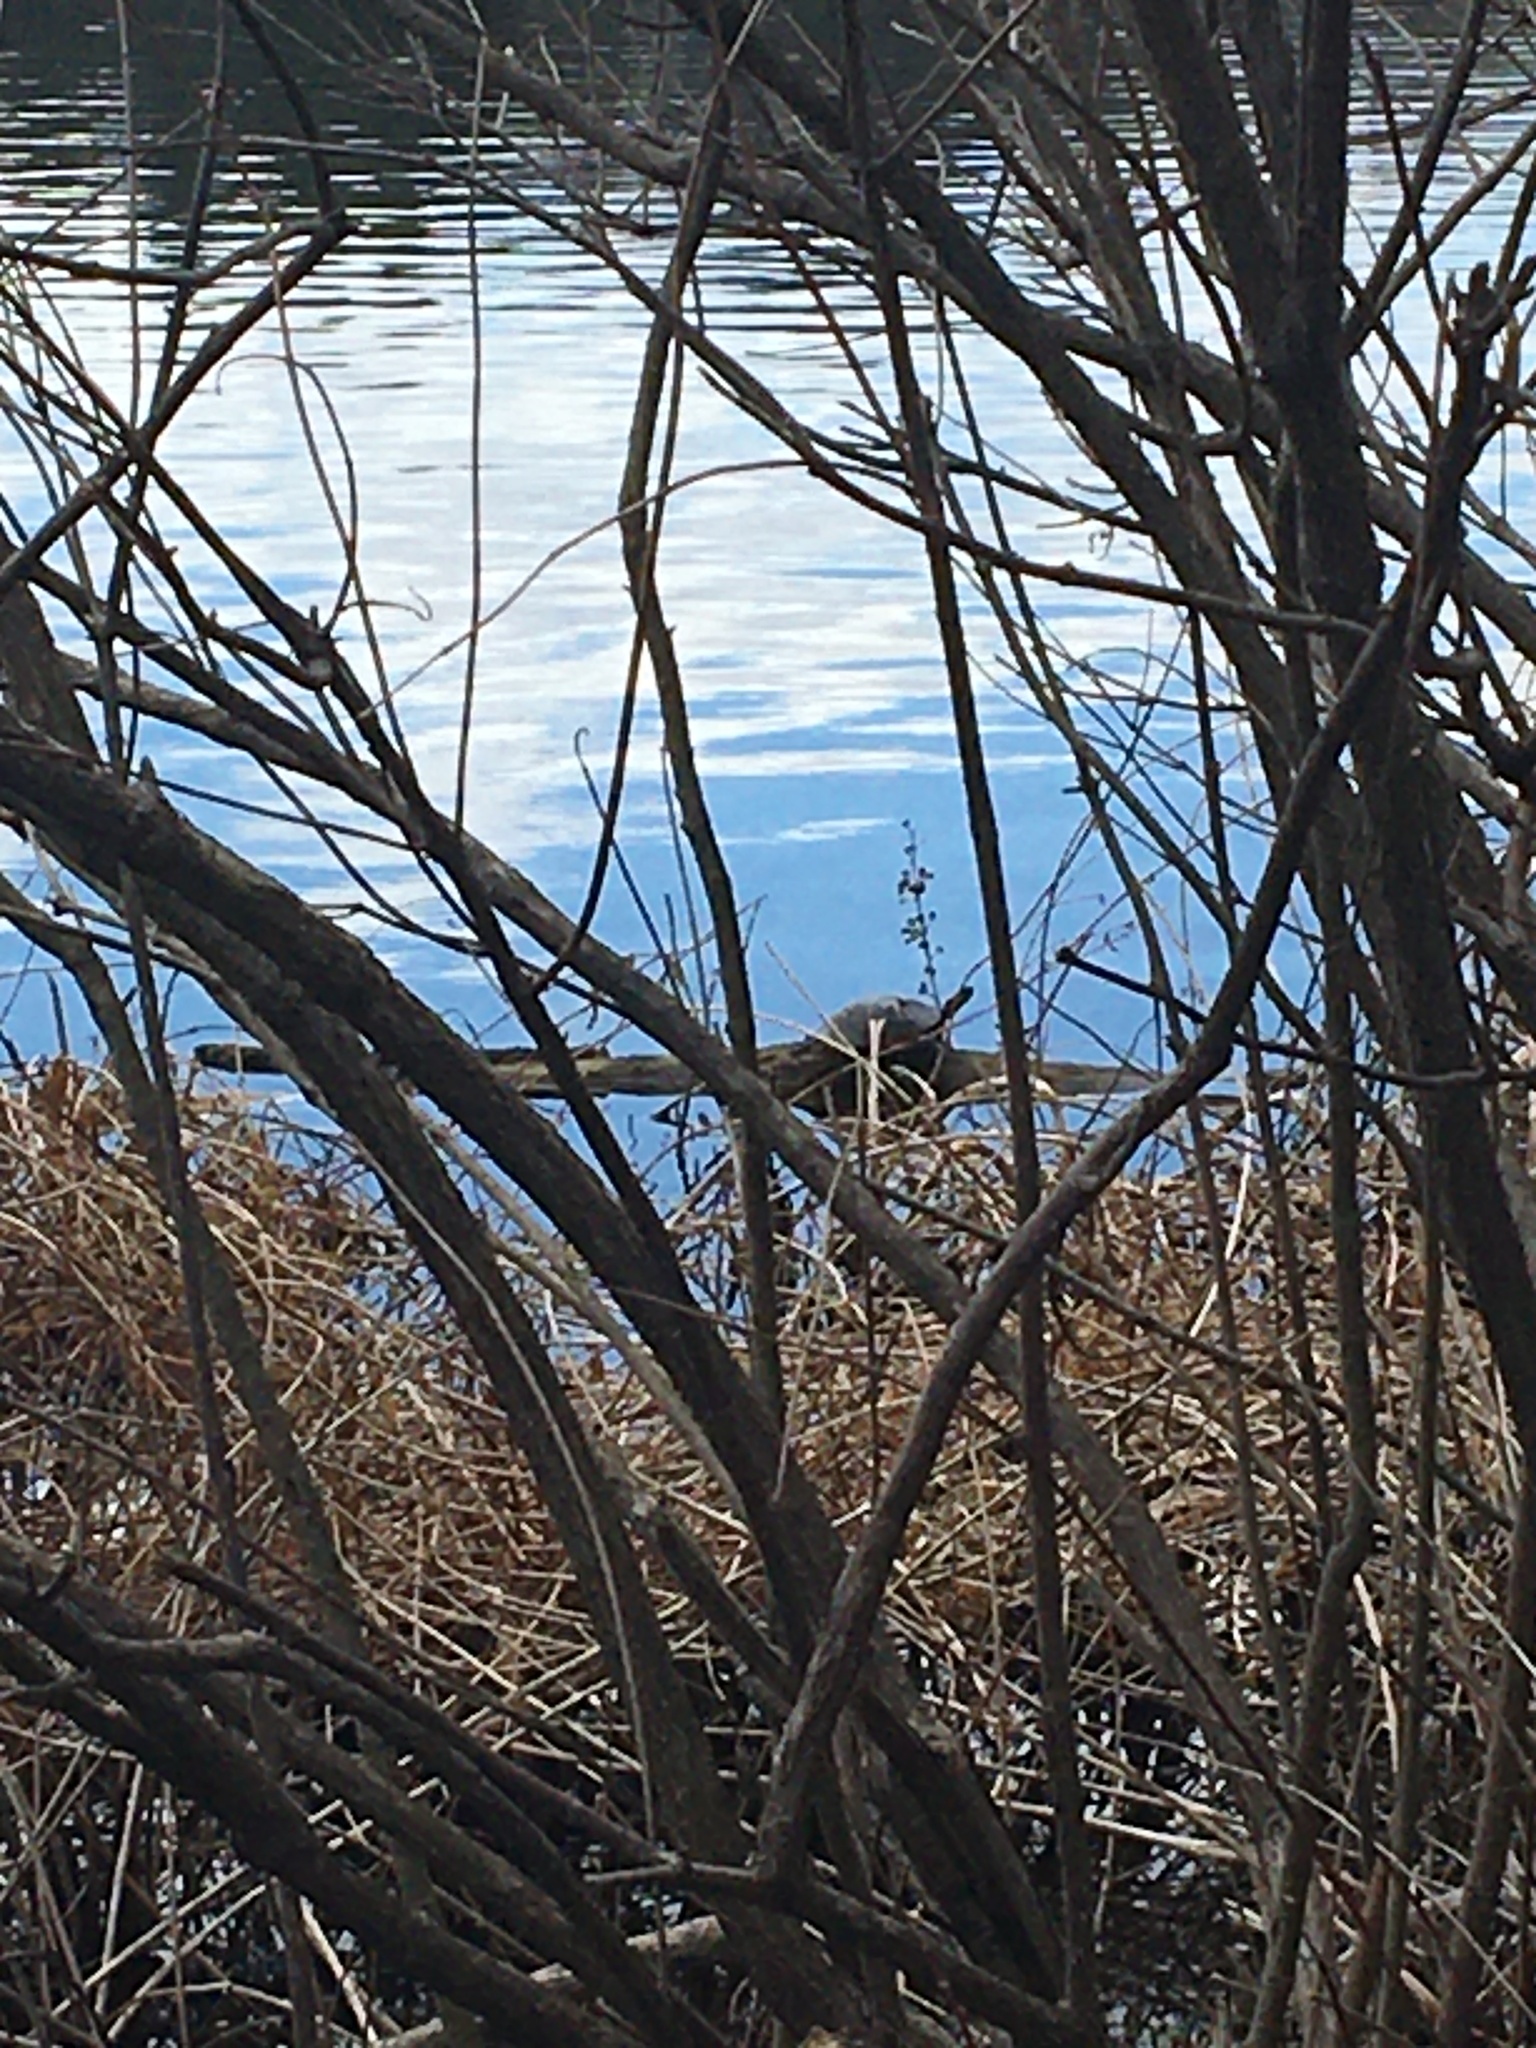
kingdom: Animalia
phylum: Chordata
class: Testudines
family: Emydidae
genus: Chrysemys
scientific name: Chrysemys picta
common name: Painted turtle
